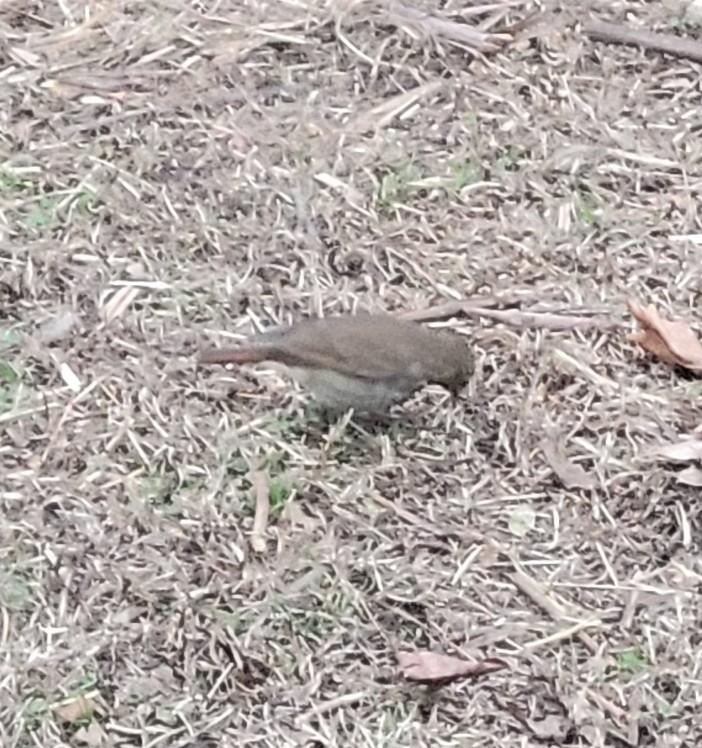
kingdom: Animalia
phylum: Chordata
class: Aves
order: Passeriformes
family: Turdidae
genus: Catharus
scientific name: Catharus guttatus
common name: Hermit thrush
